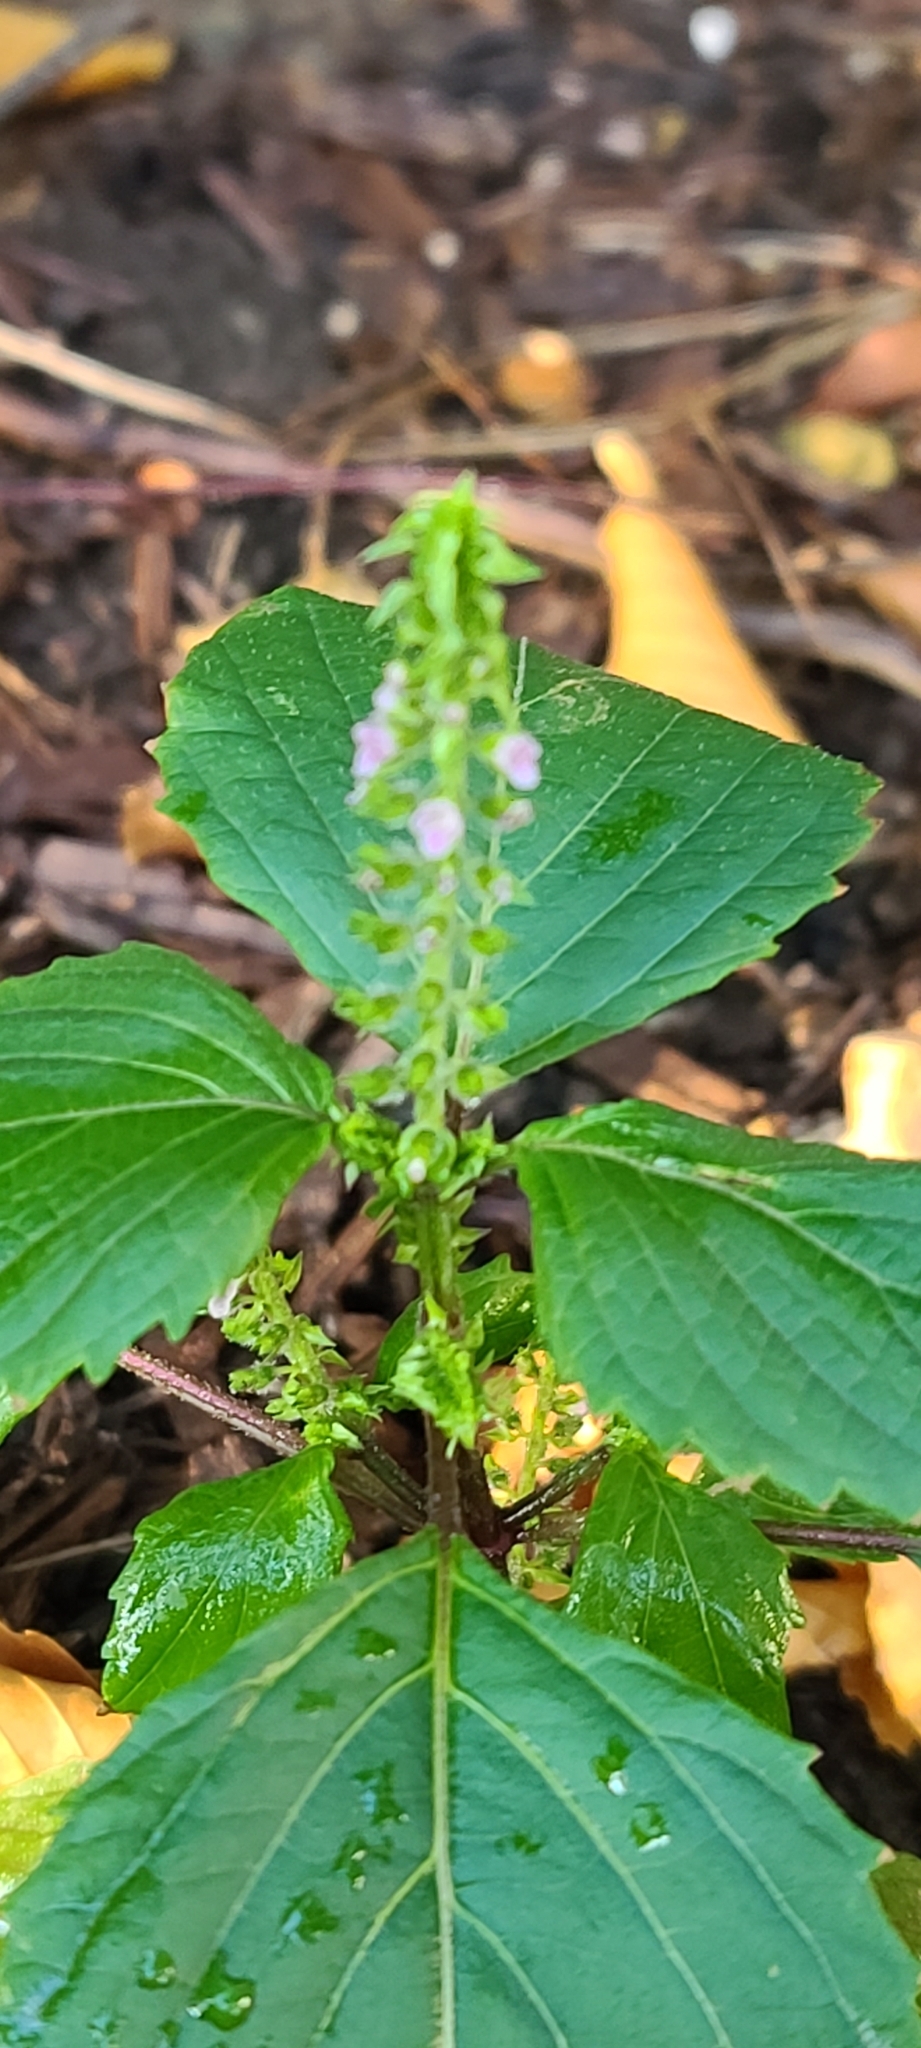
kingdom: Plantae
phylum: Tracheophyta
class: Magnoliopsida
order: Lamiales
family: Lamiaceae
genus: Perilla
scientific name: Perilla frutescens
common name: Perilla
